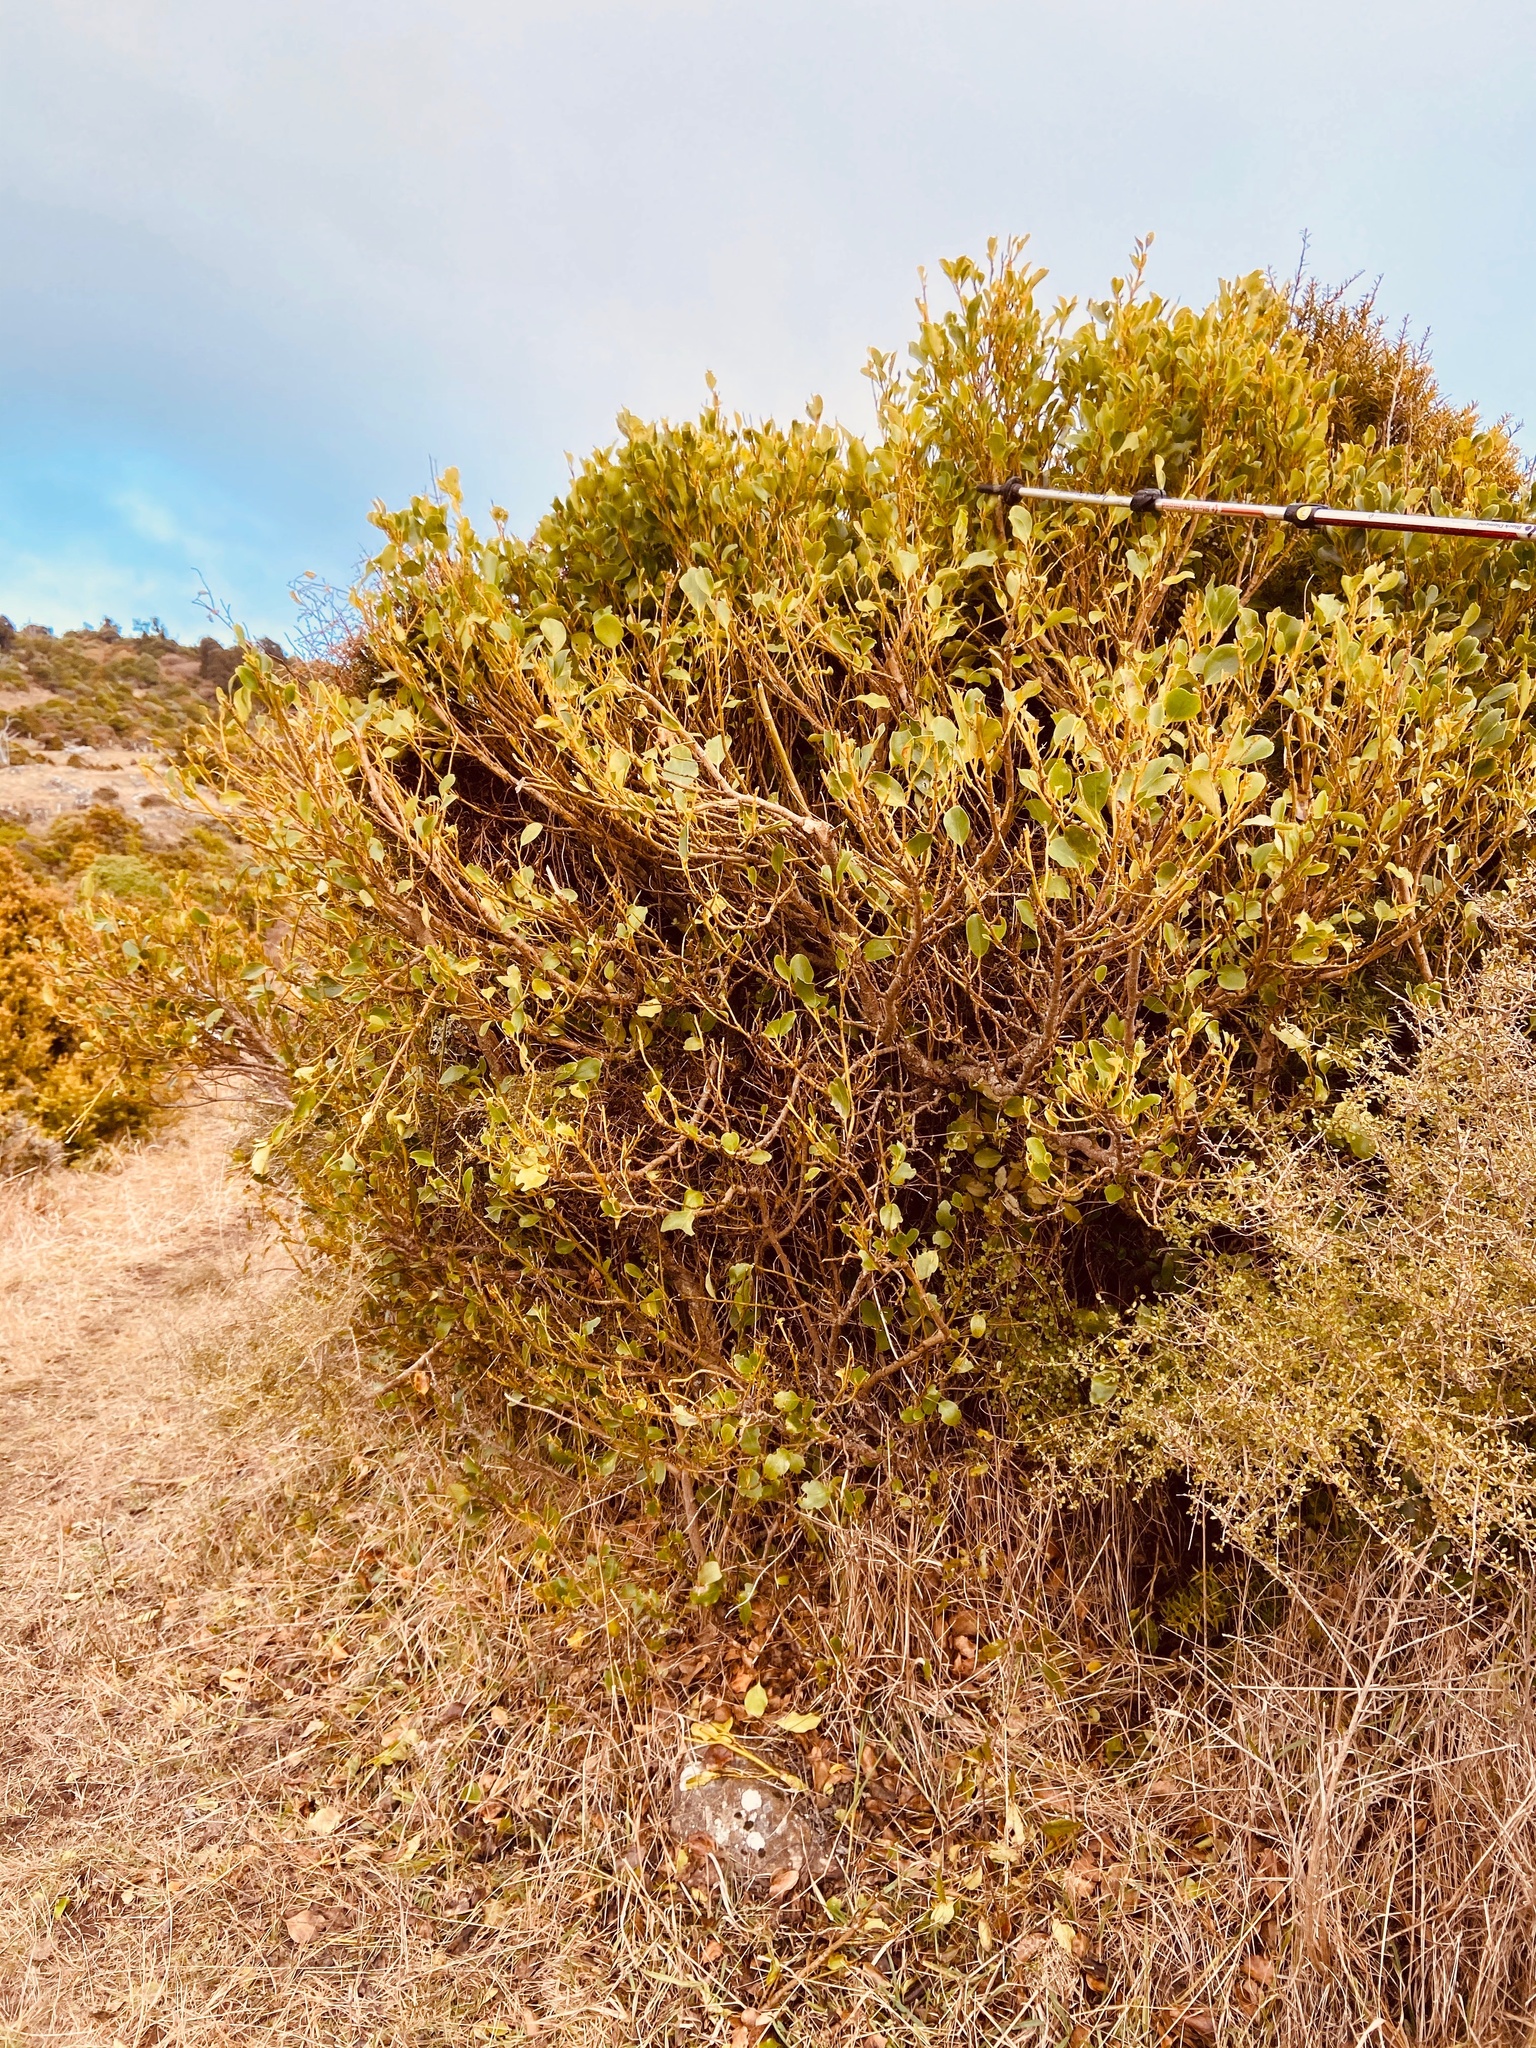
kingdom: Plantae
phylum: Tracheophyta
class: Magnoliopsida
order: Apiales
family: Griseliniaceae
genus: Griselinia
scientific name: Griselinia littoralis
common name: New zealand broadleaf
